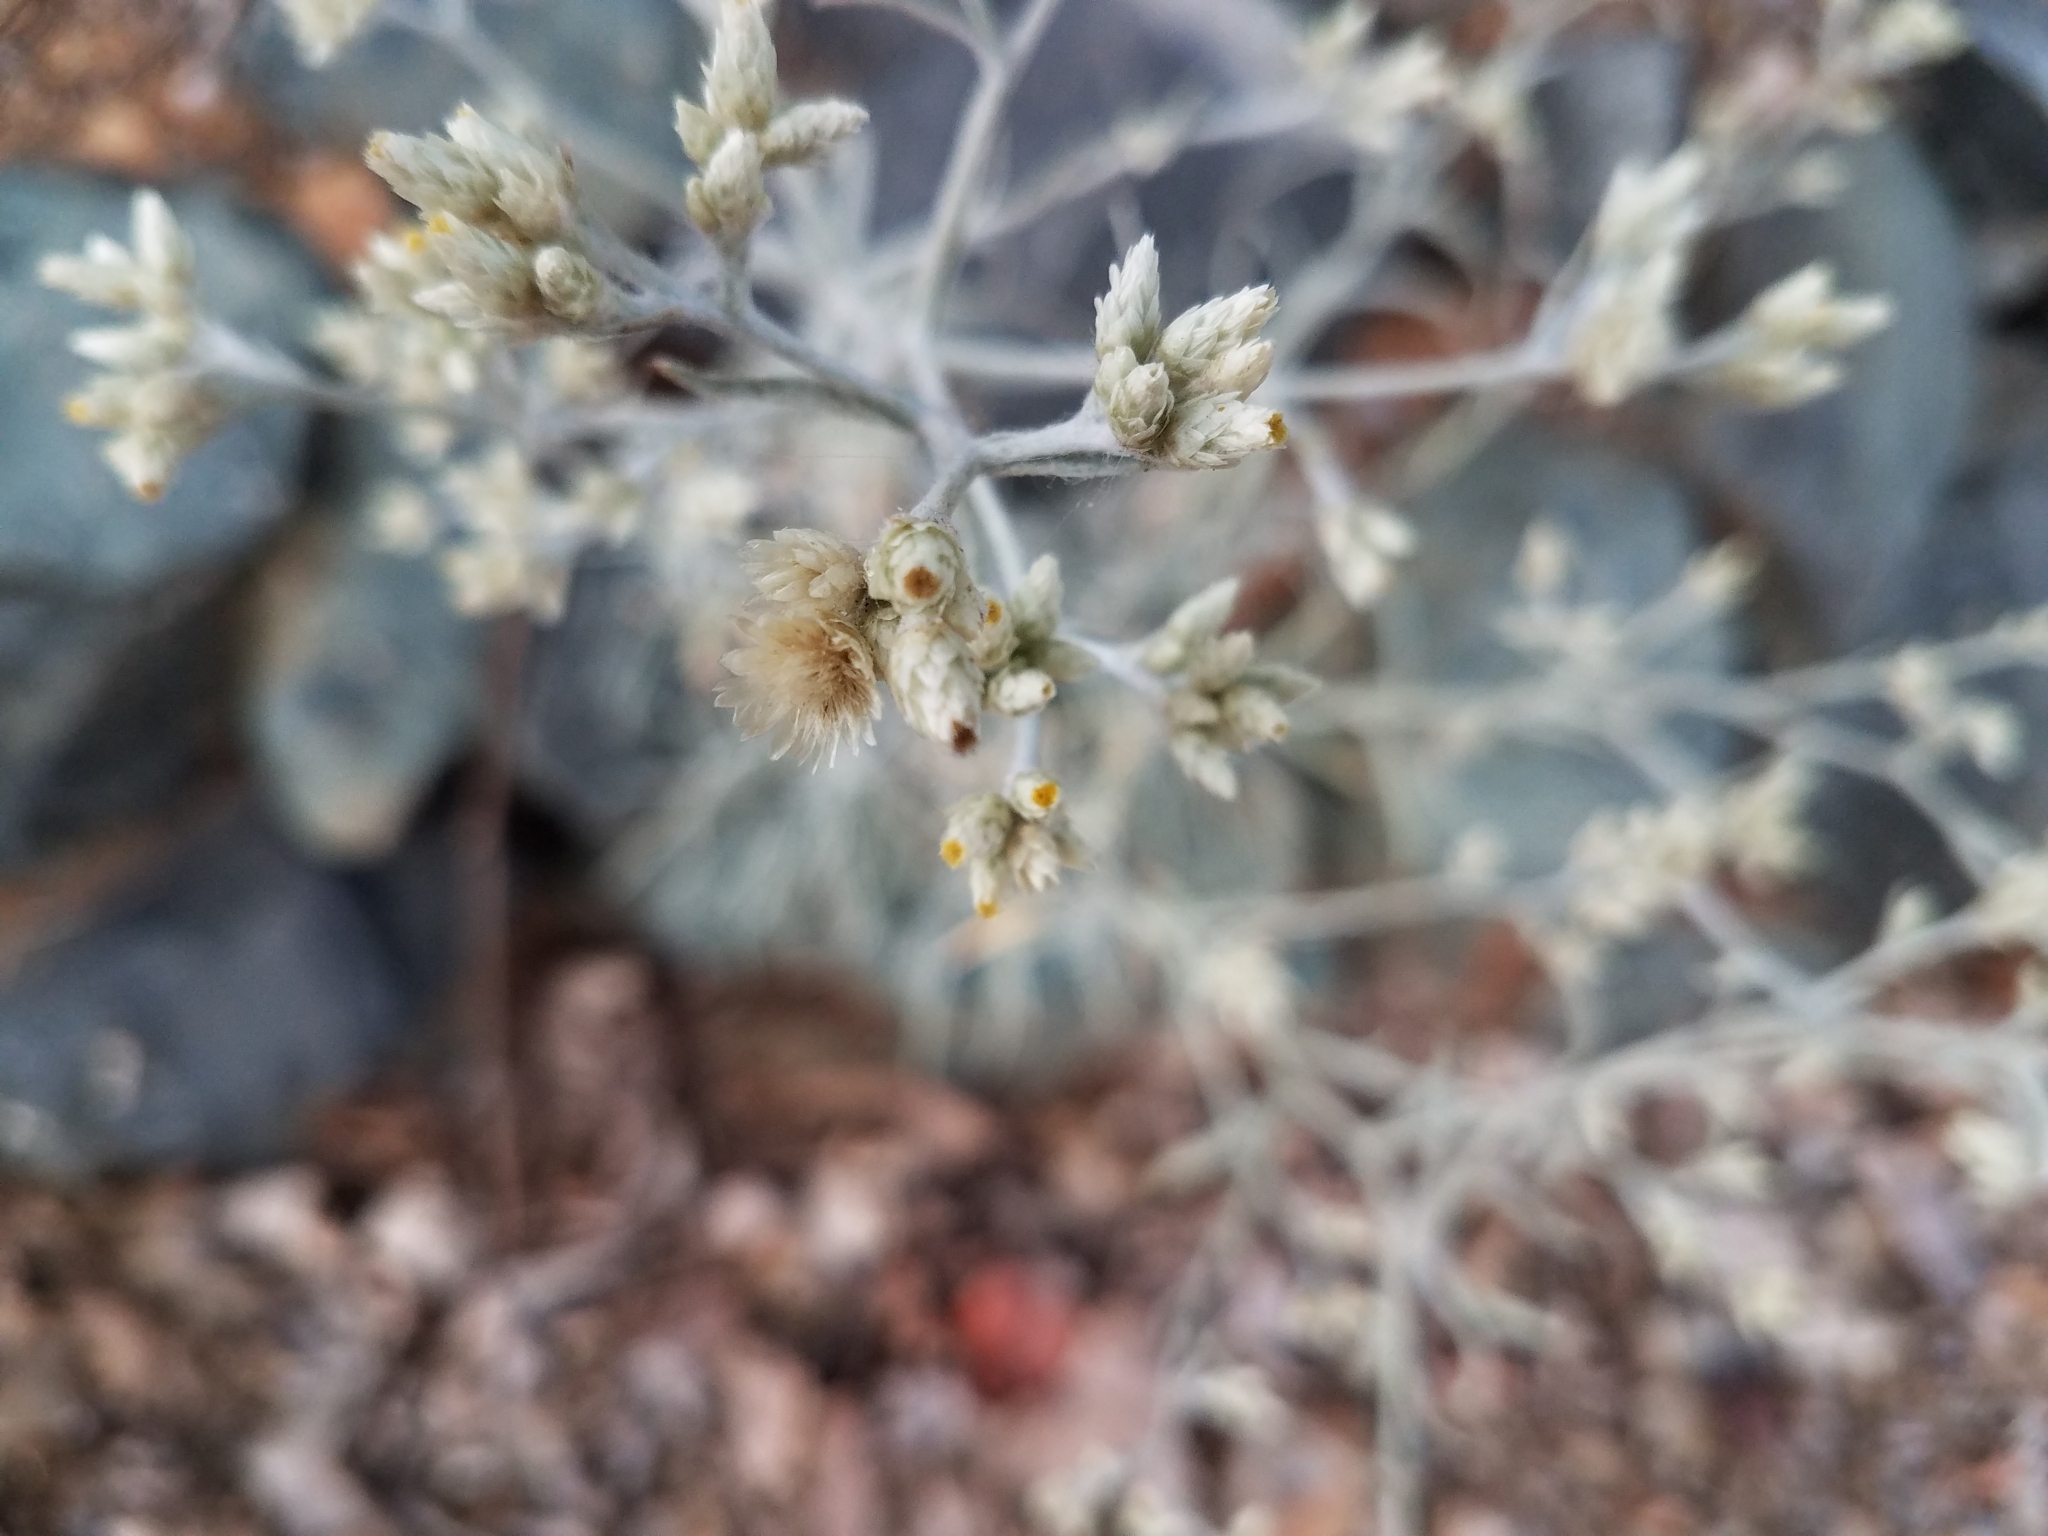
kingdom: Plantae
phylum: Tracheophyta
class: Magnoliopsida
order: Asterales
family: Asteraceae
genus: Pseudognaphalium
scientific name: Pseudognaphalium beneolens
